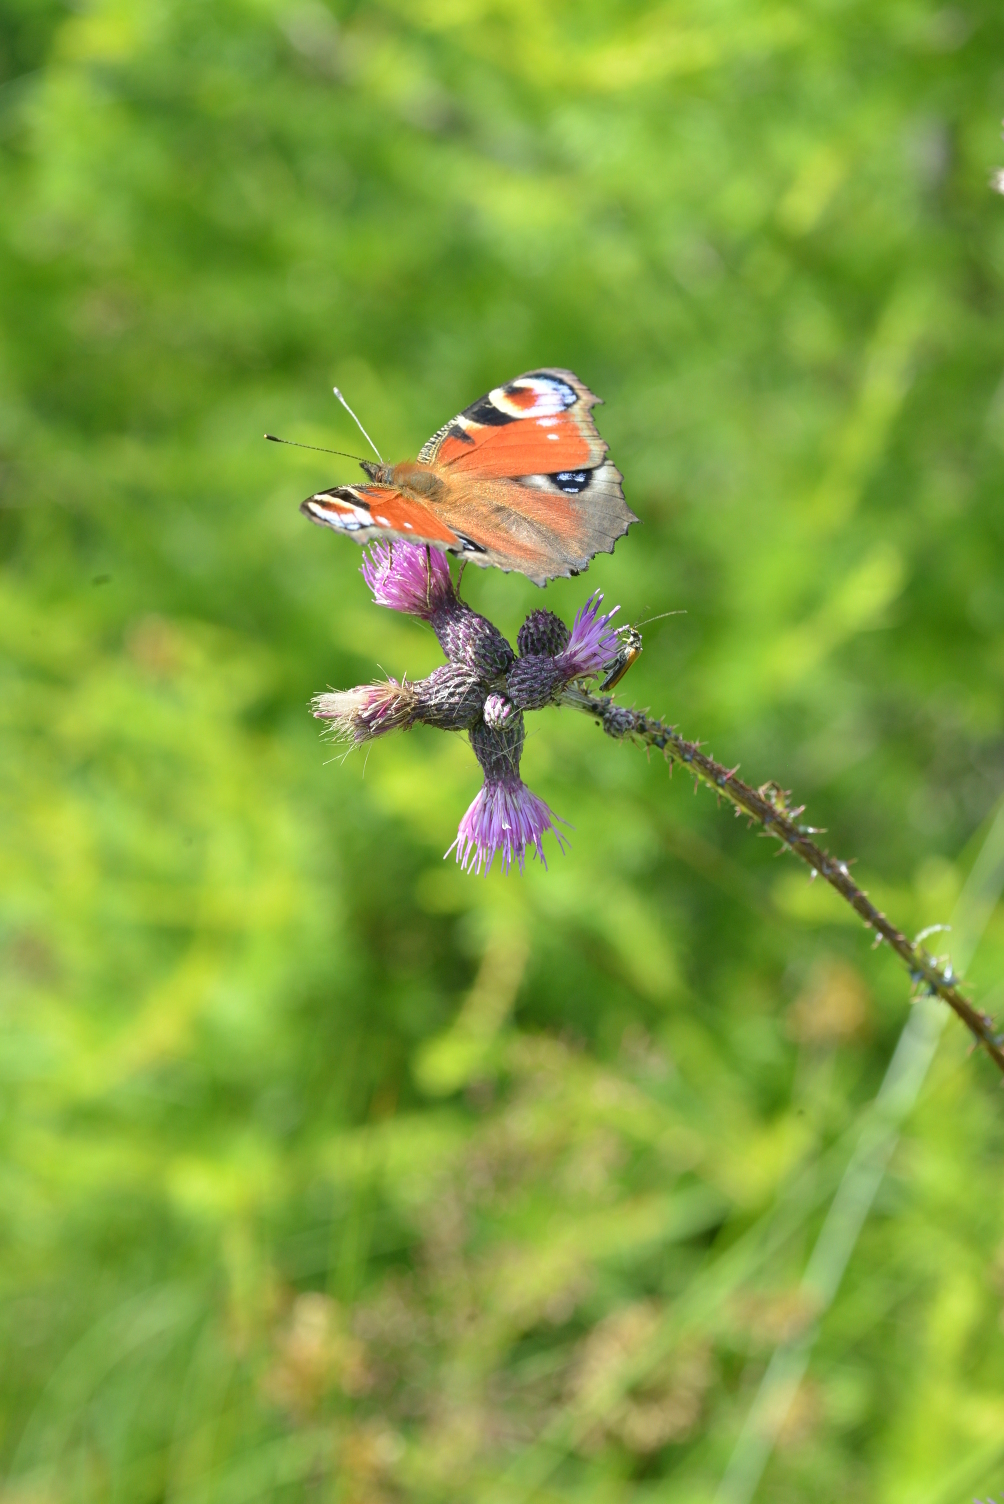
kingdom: Animalia
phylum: Arthropoda
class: Insecta
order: Lepidoptera
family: Nymphalidae
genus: Aglais
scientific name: Aglais io
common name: Peacock
